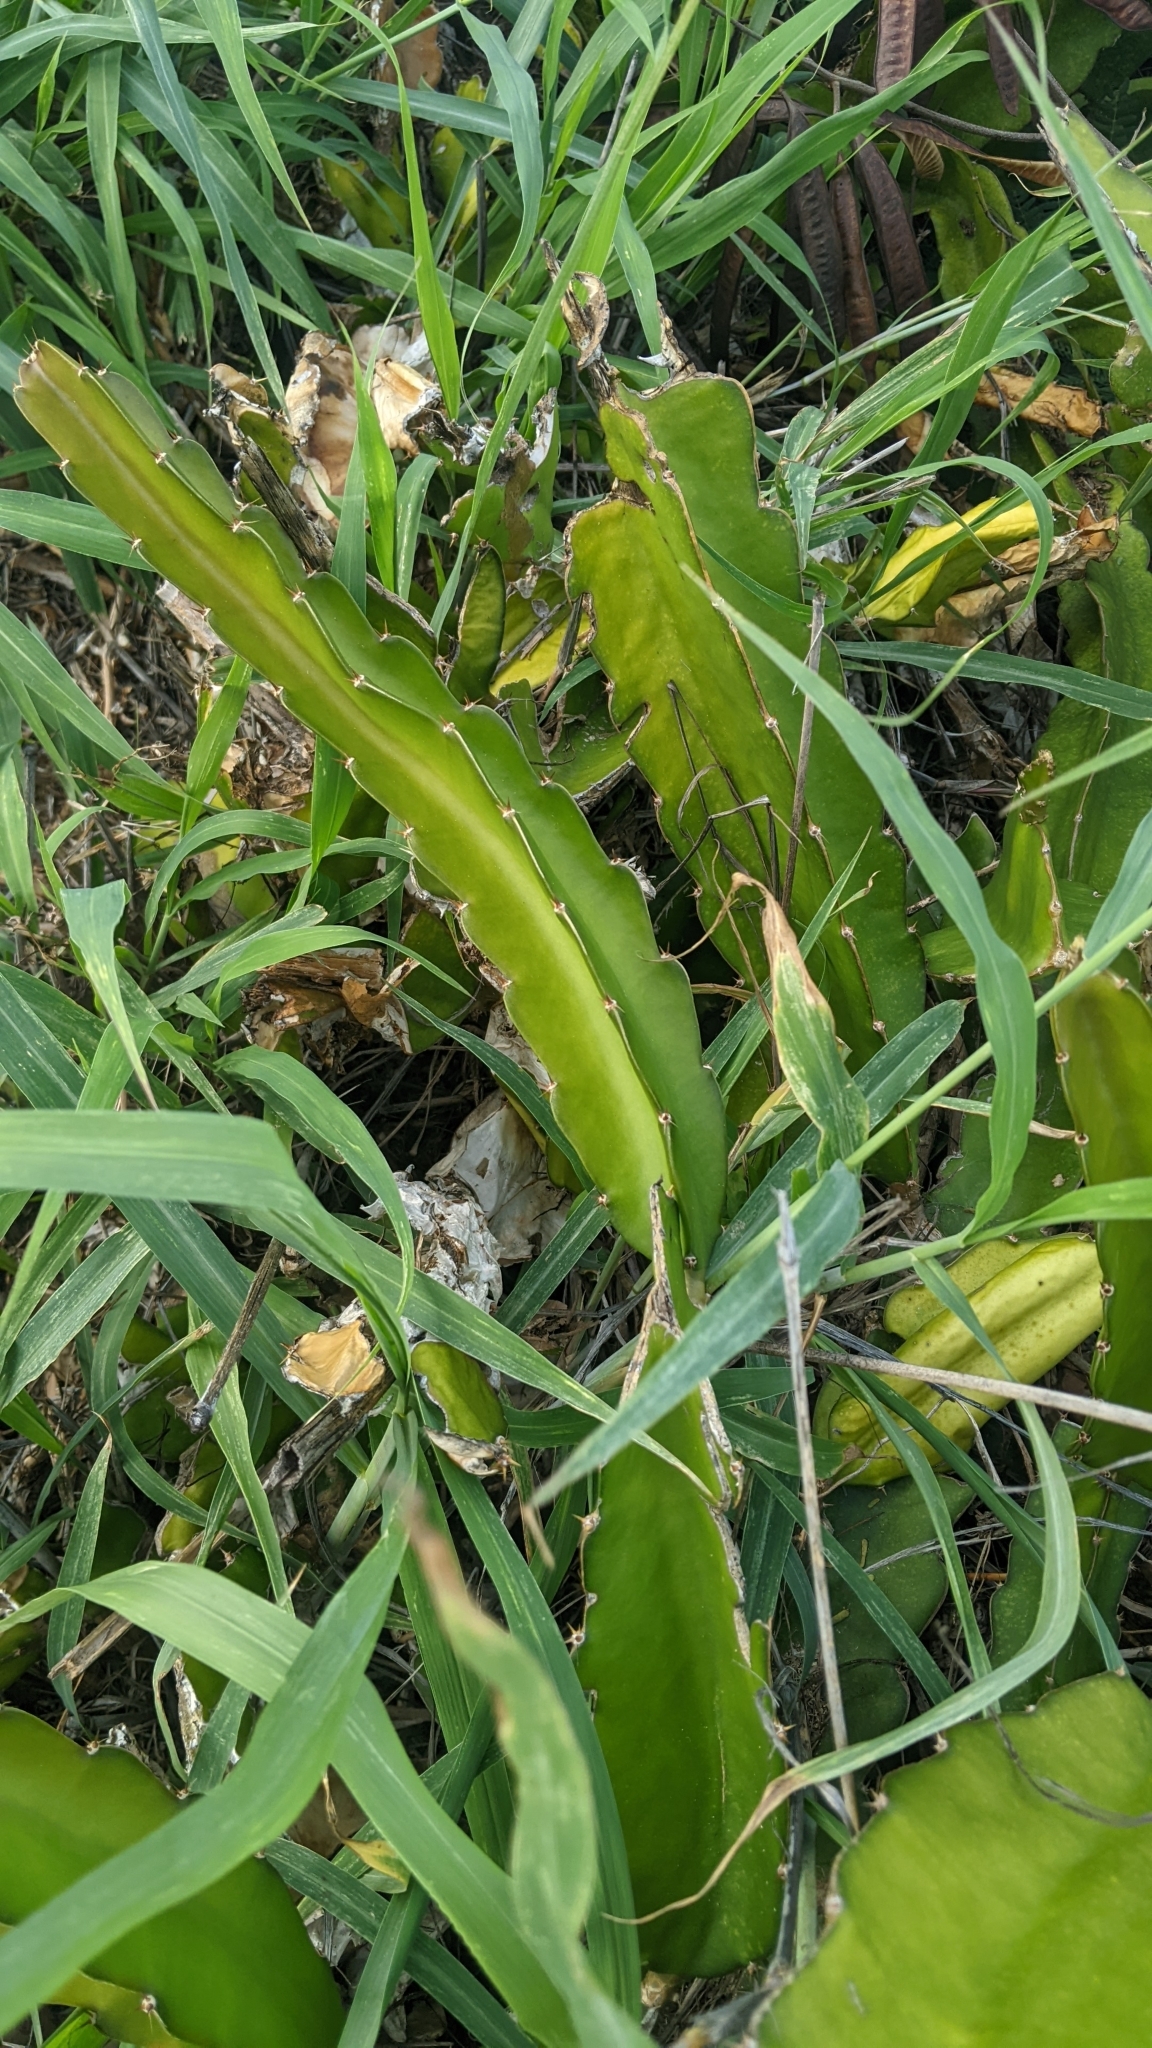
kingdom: Plantae
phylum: Tracheophyta
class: Magnoliopsida
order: Caryophyllales
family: Cactaceae
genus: Selenicereus
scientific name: Selenicereus undatus
